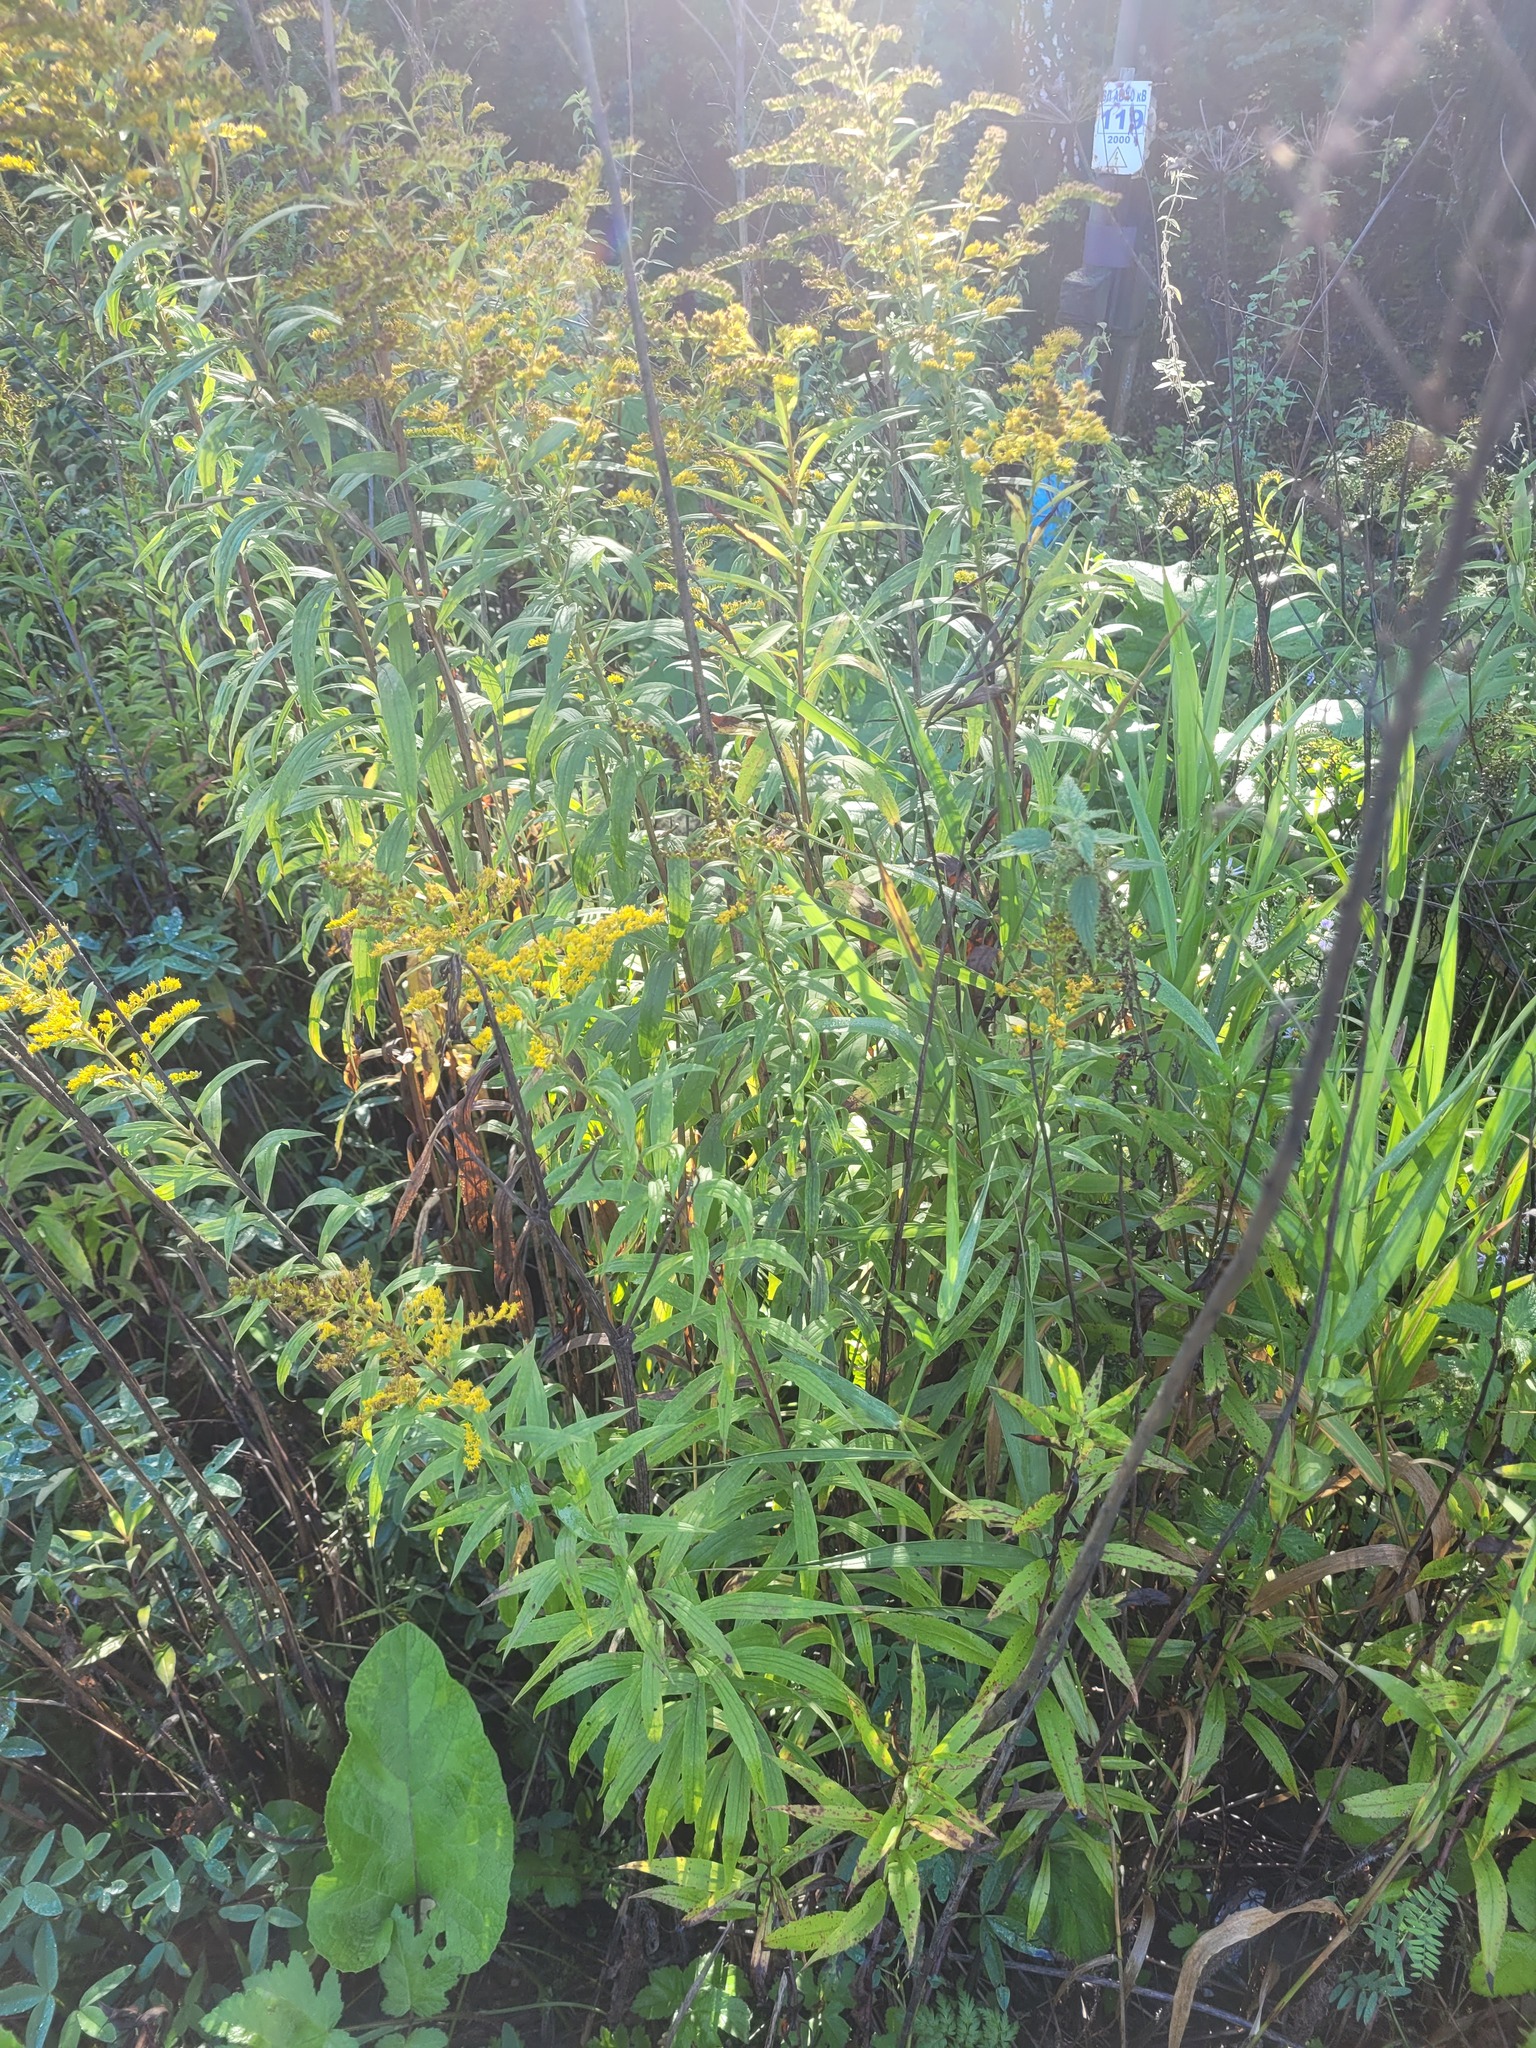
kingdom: Plantae
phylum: Tracheophyta
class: Magnoliopsida
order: Asterales
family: Asteraceae
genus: Solidago
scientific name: Solidago canadensis
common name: Canada goldenrod
